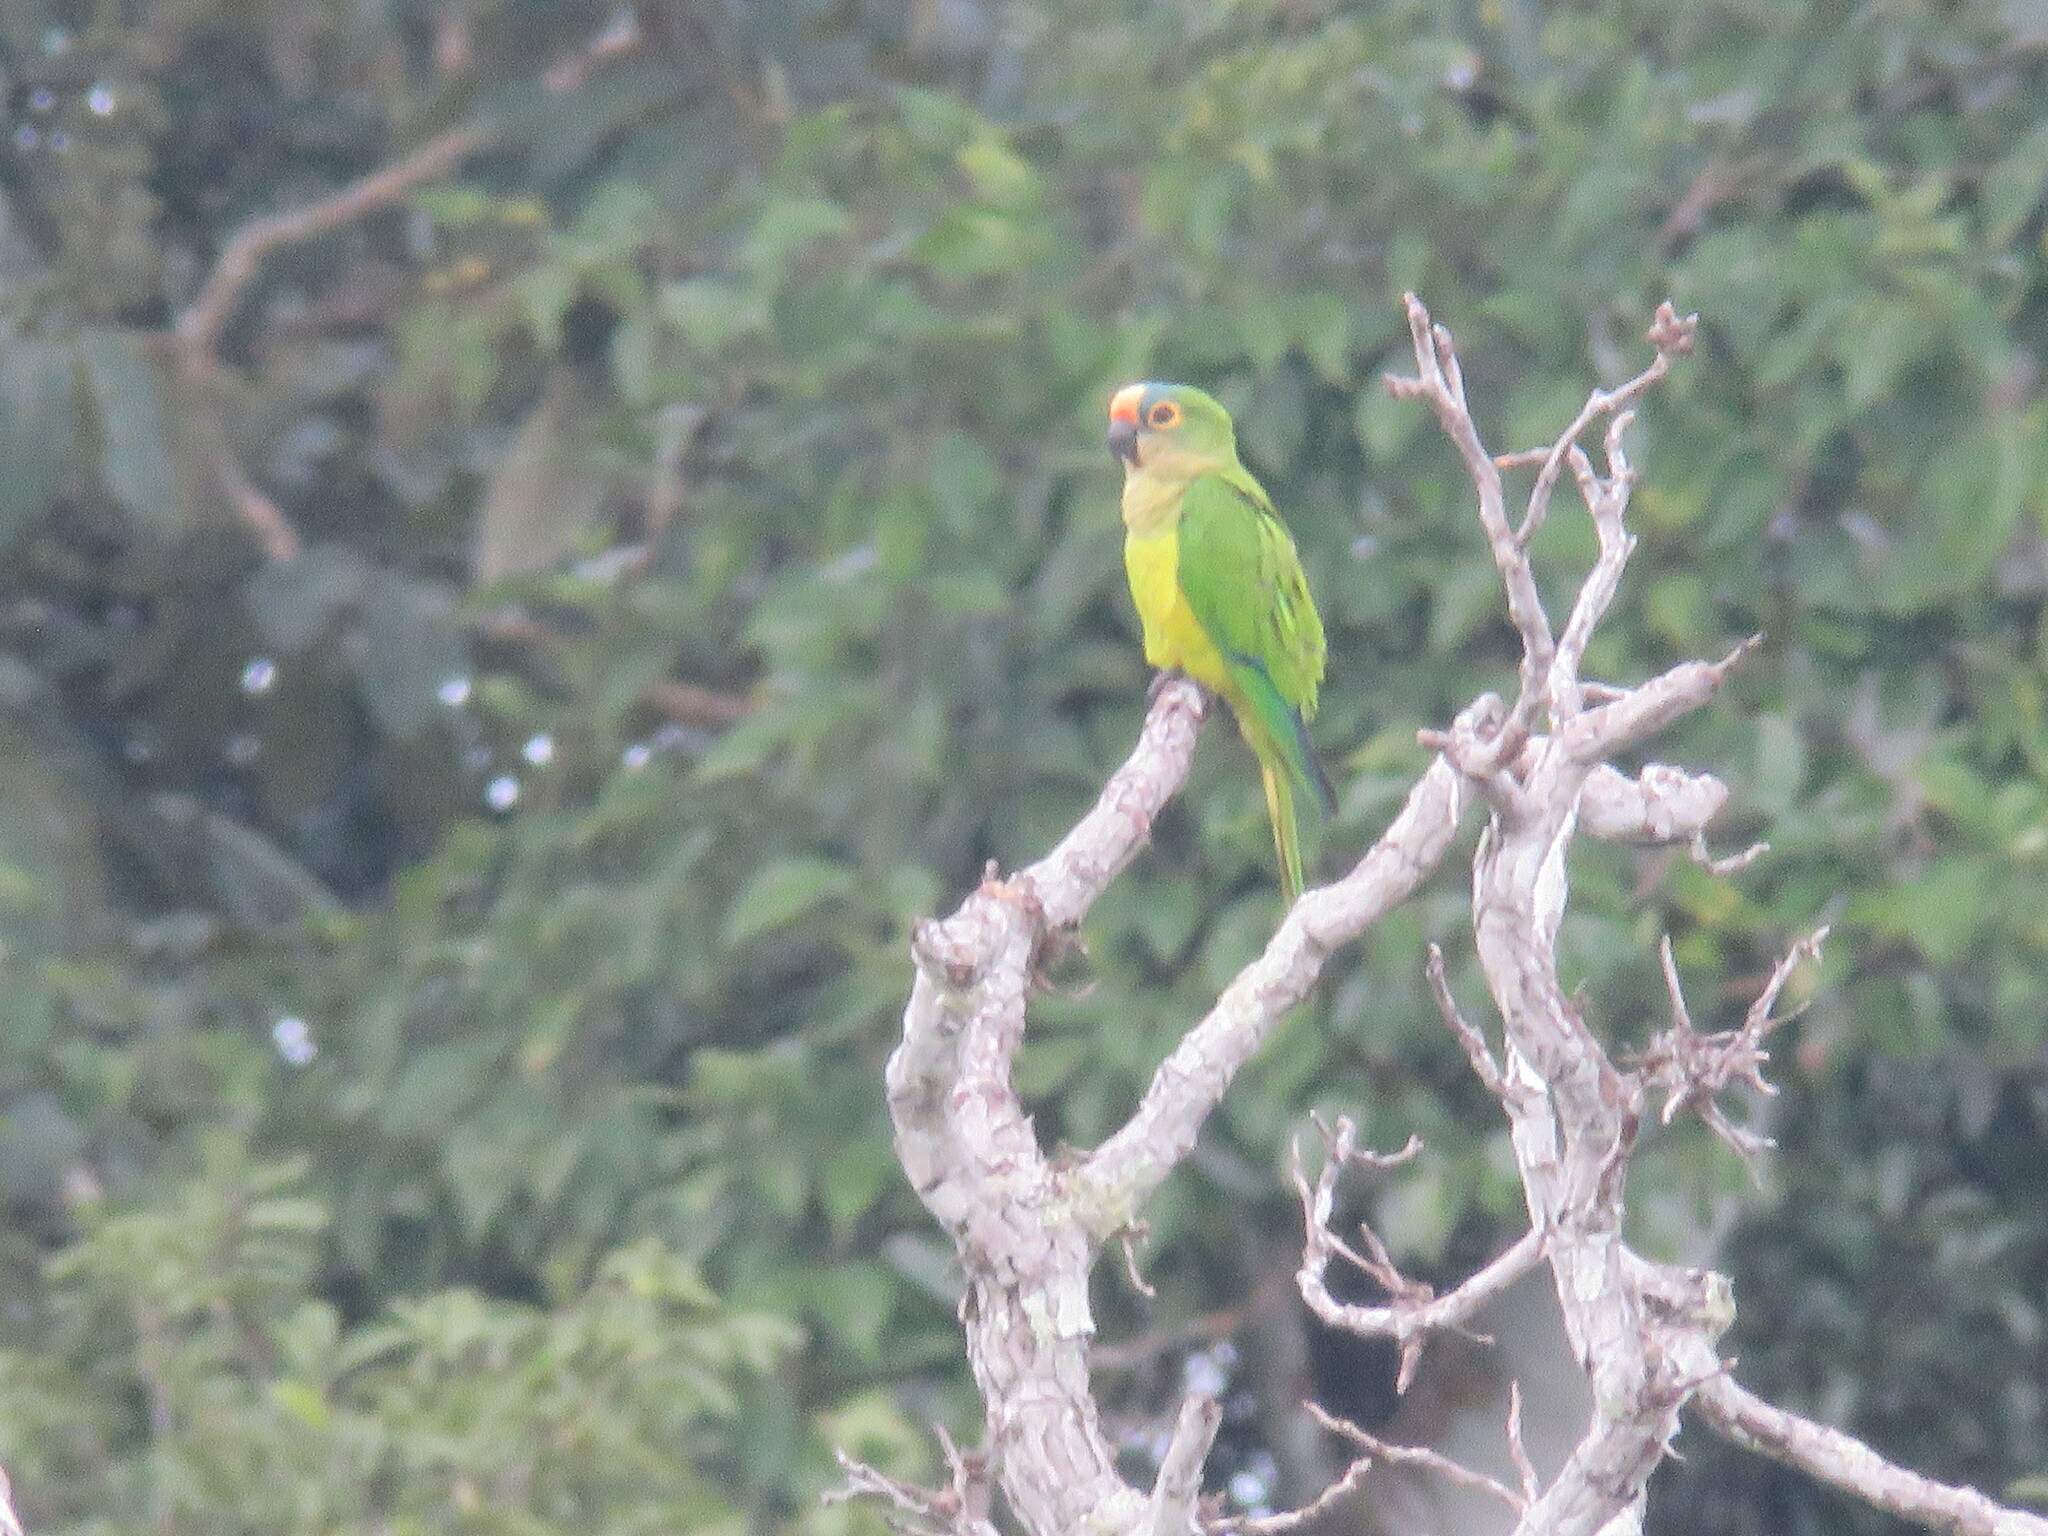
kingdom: Animalia
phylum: Chordata
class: Aves
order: Psittaciformes
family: Psittacidae
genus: Aratinga
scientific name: Aratinga aurea
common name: Peach-fronted parakeet
